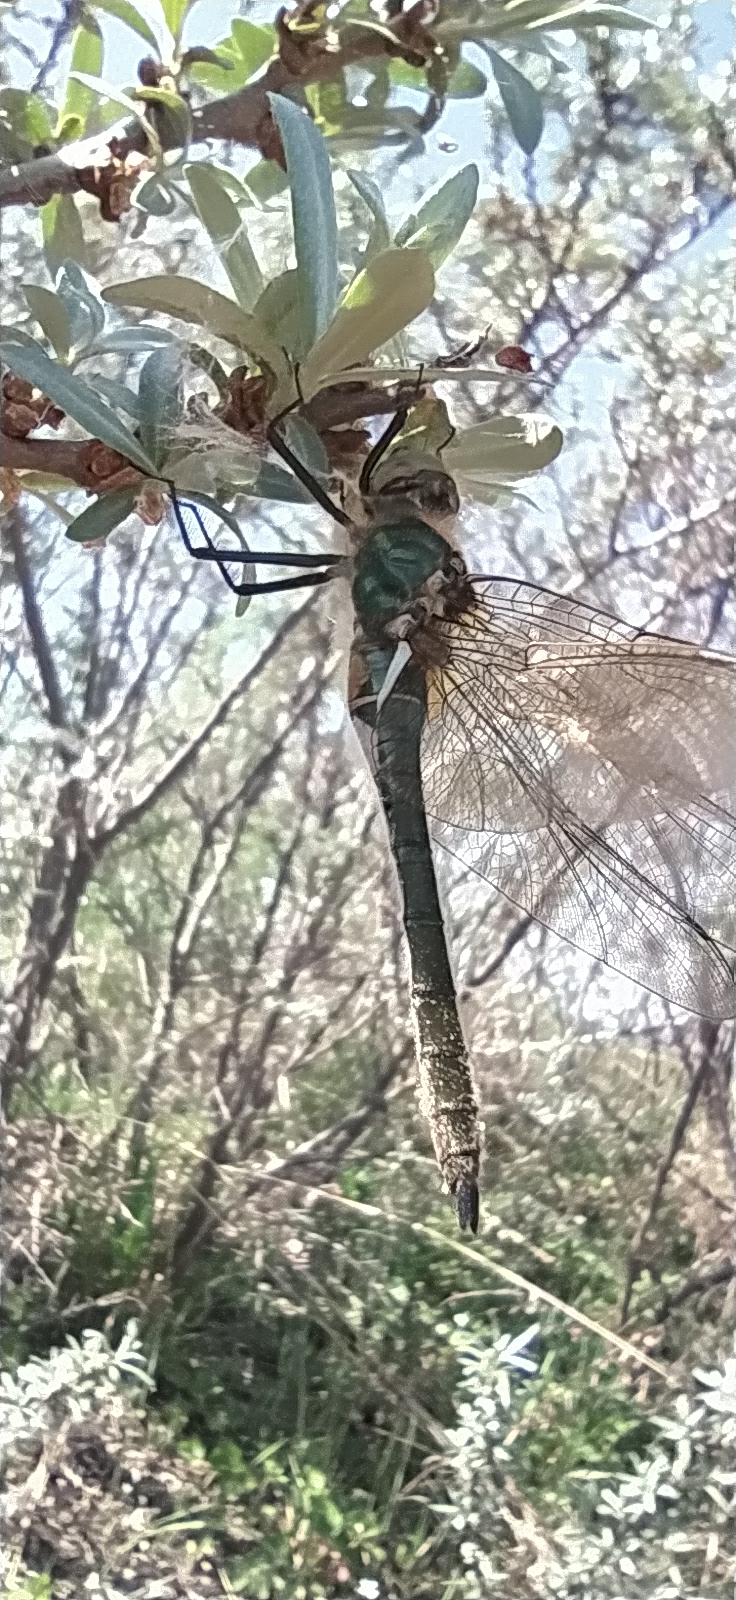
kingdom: Animalia
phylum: Arthropoda
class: Insecta
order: Odonata
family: Corduliidae
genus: Cordulia
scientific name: Cordulia aenea
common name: Downy emerald
